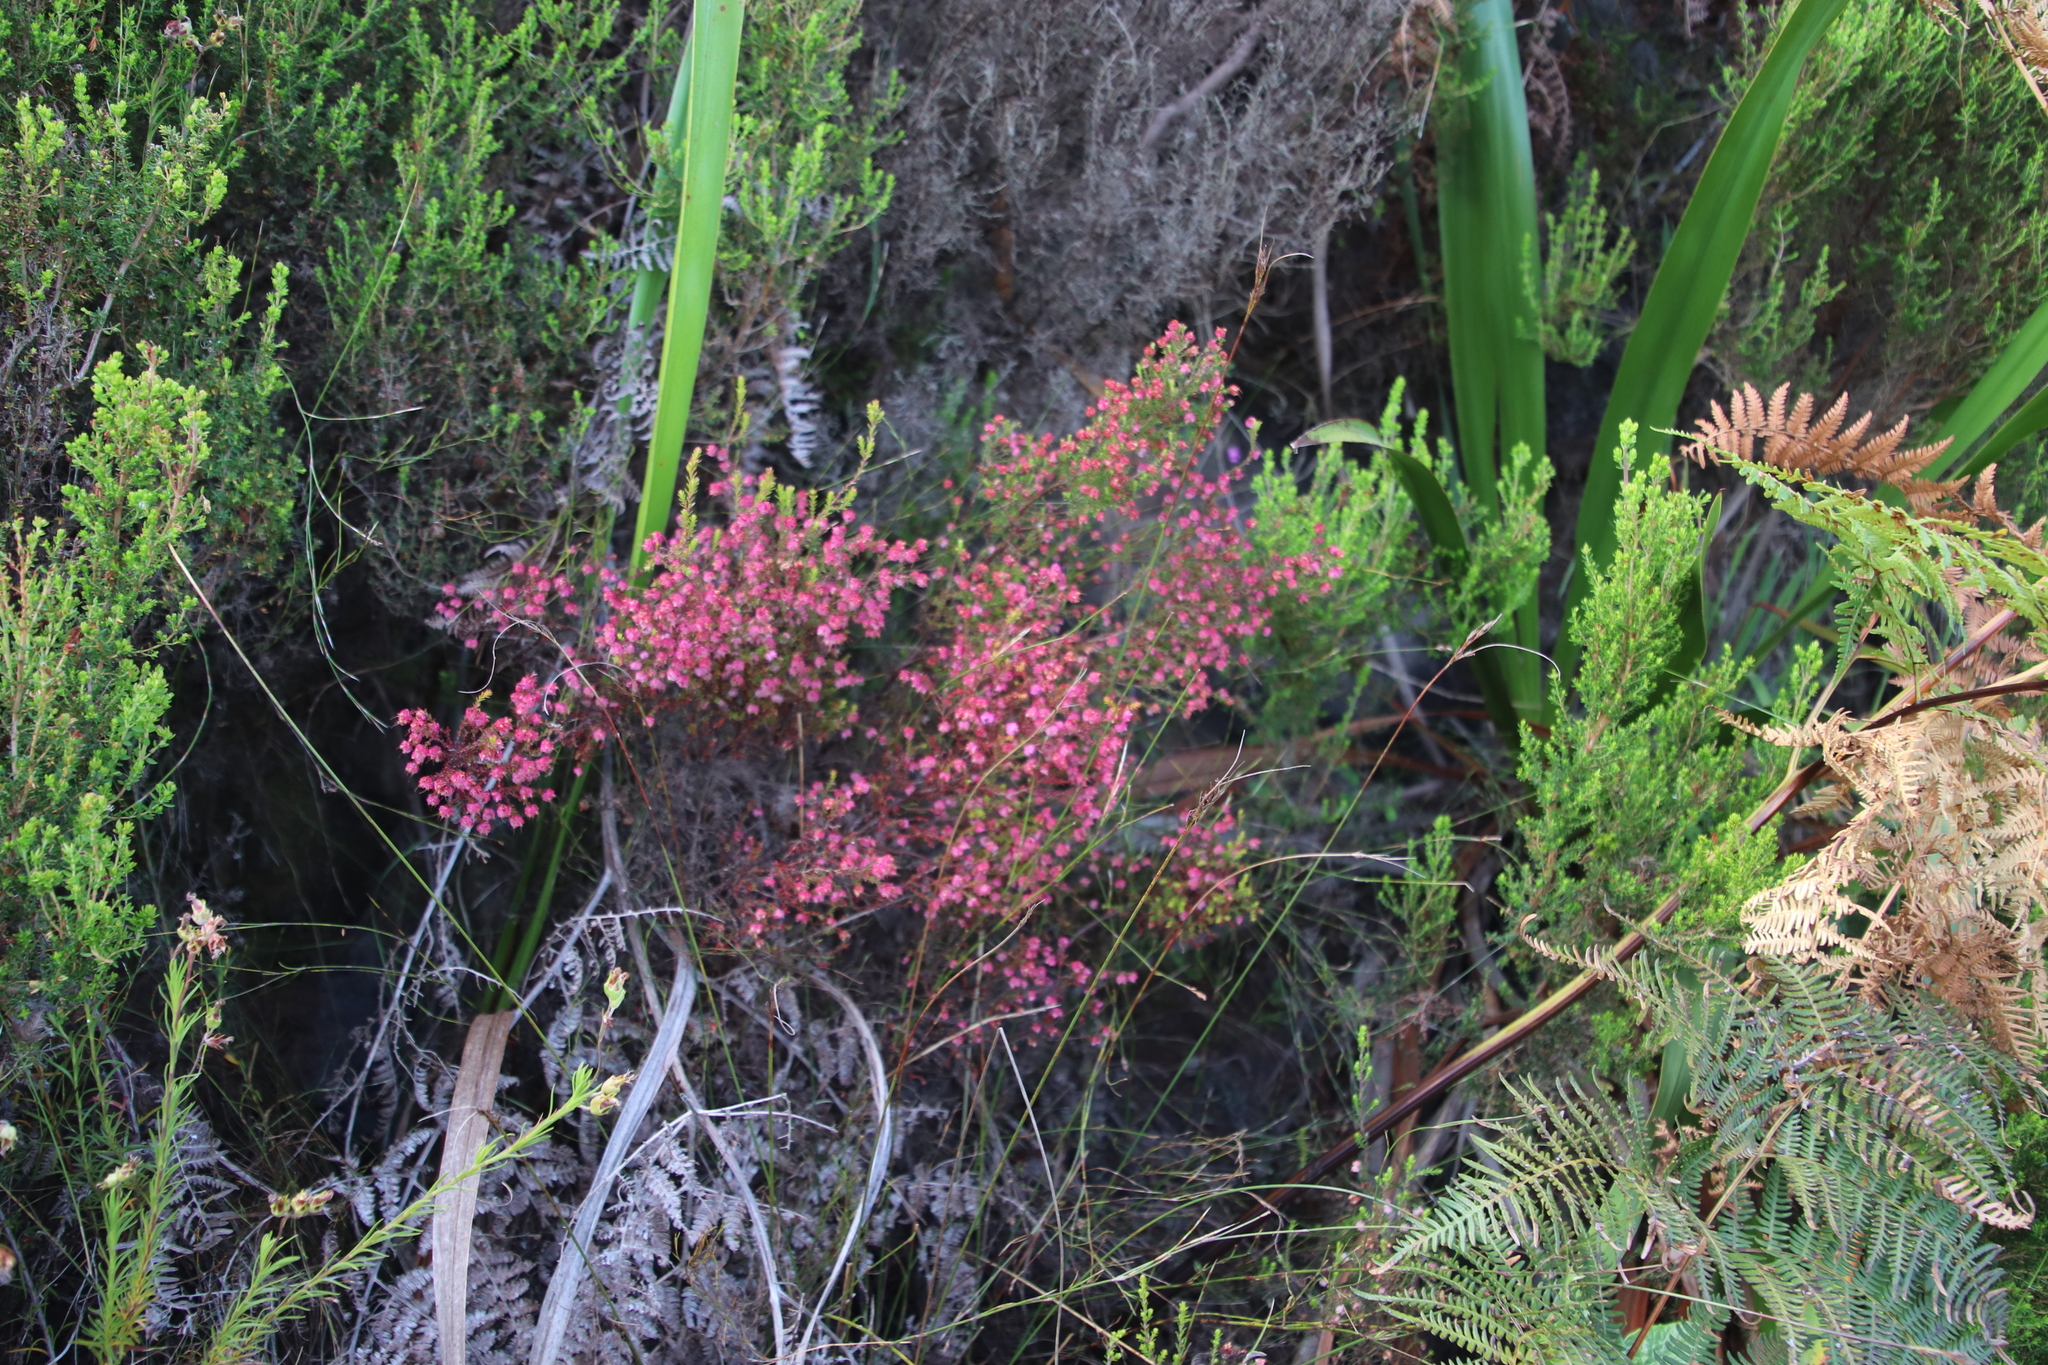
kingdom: Plantae
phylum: Tracheophyta
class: Magnoliopsida
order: Ericales
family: Ericaceae
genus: Erica
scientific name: Erica spumosa
